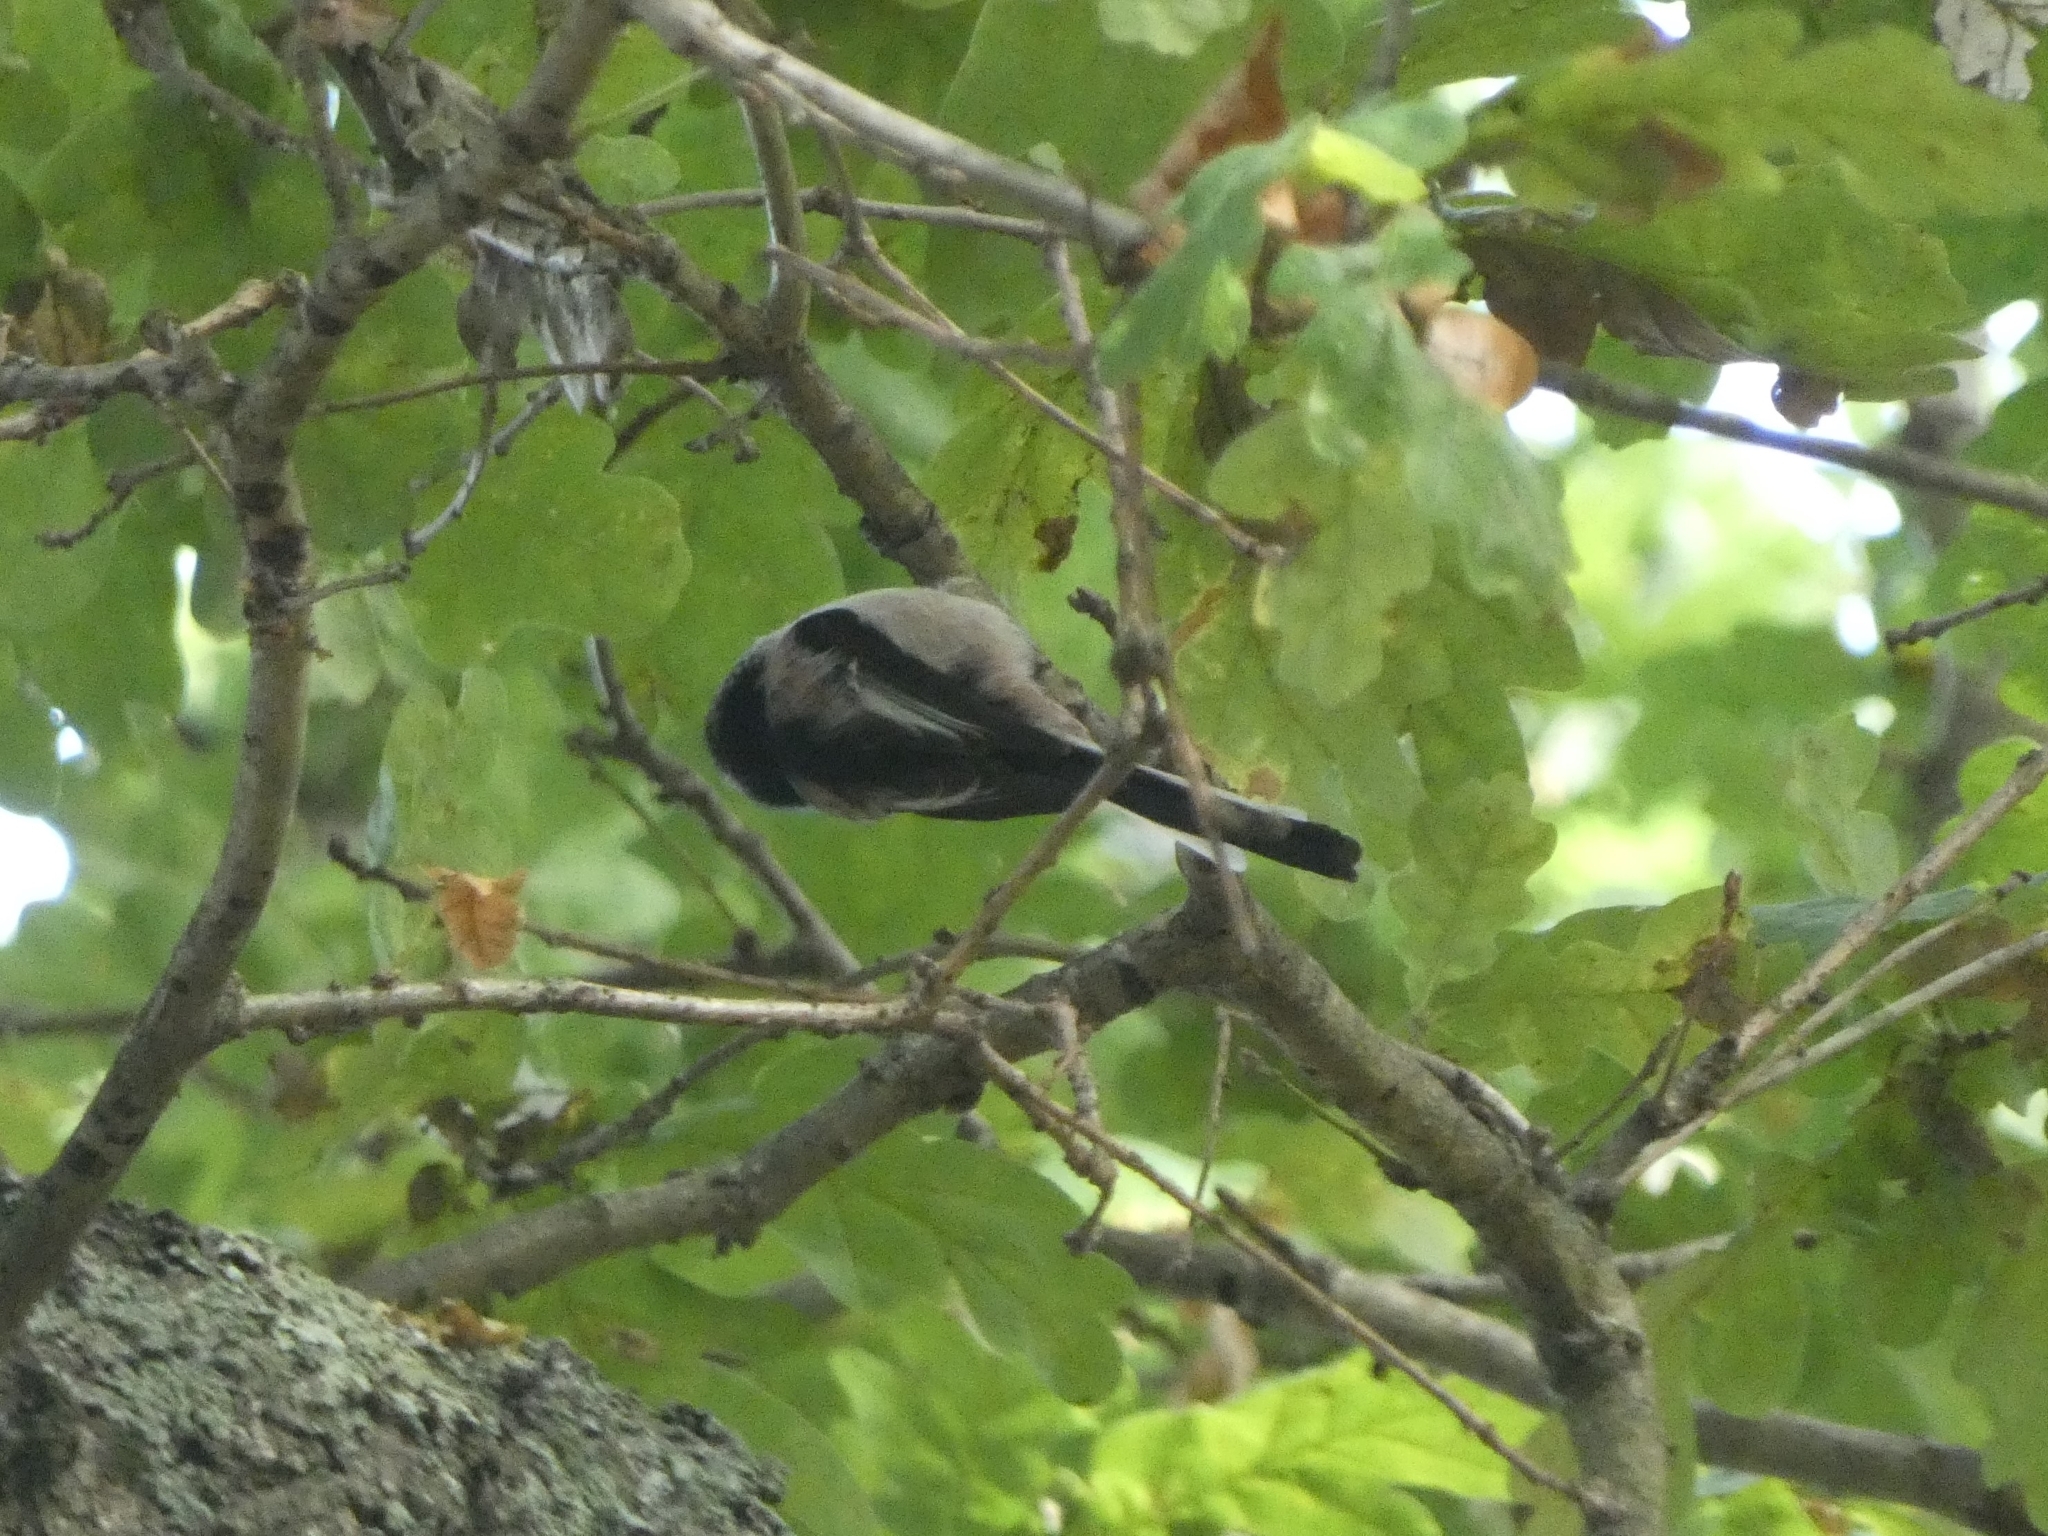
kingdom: Animalia
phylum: Chordata
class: Aves
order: Passeriformes
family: Aegithalidae
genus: Aegithalos
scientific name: Aegithalos caudatus
